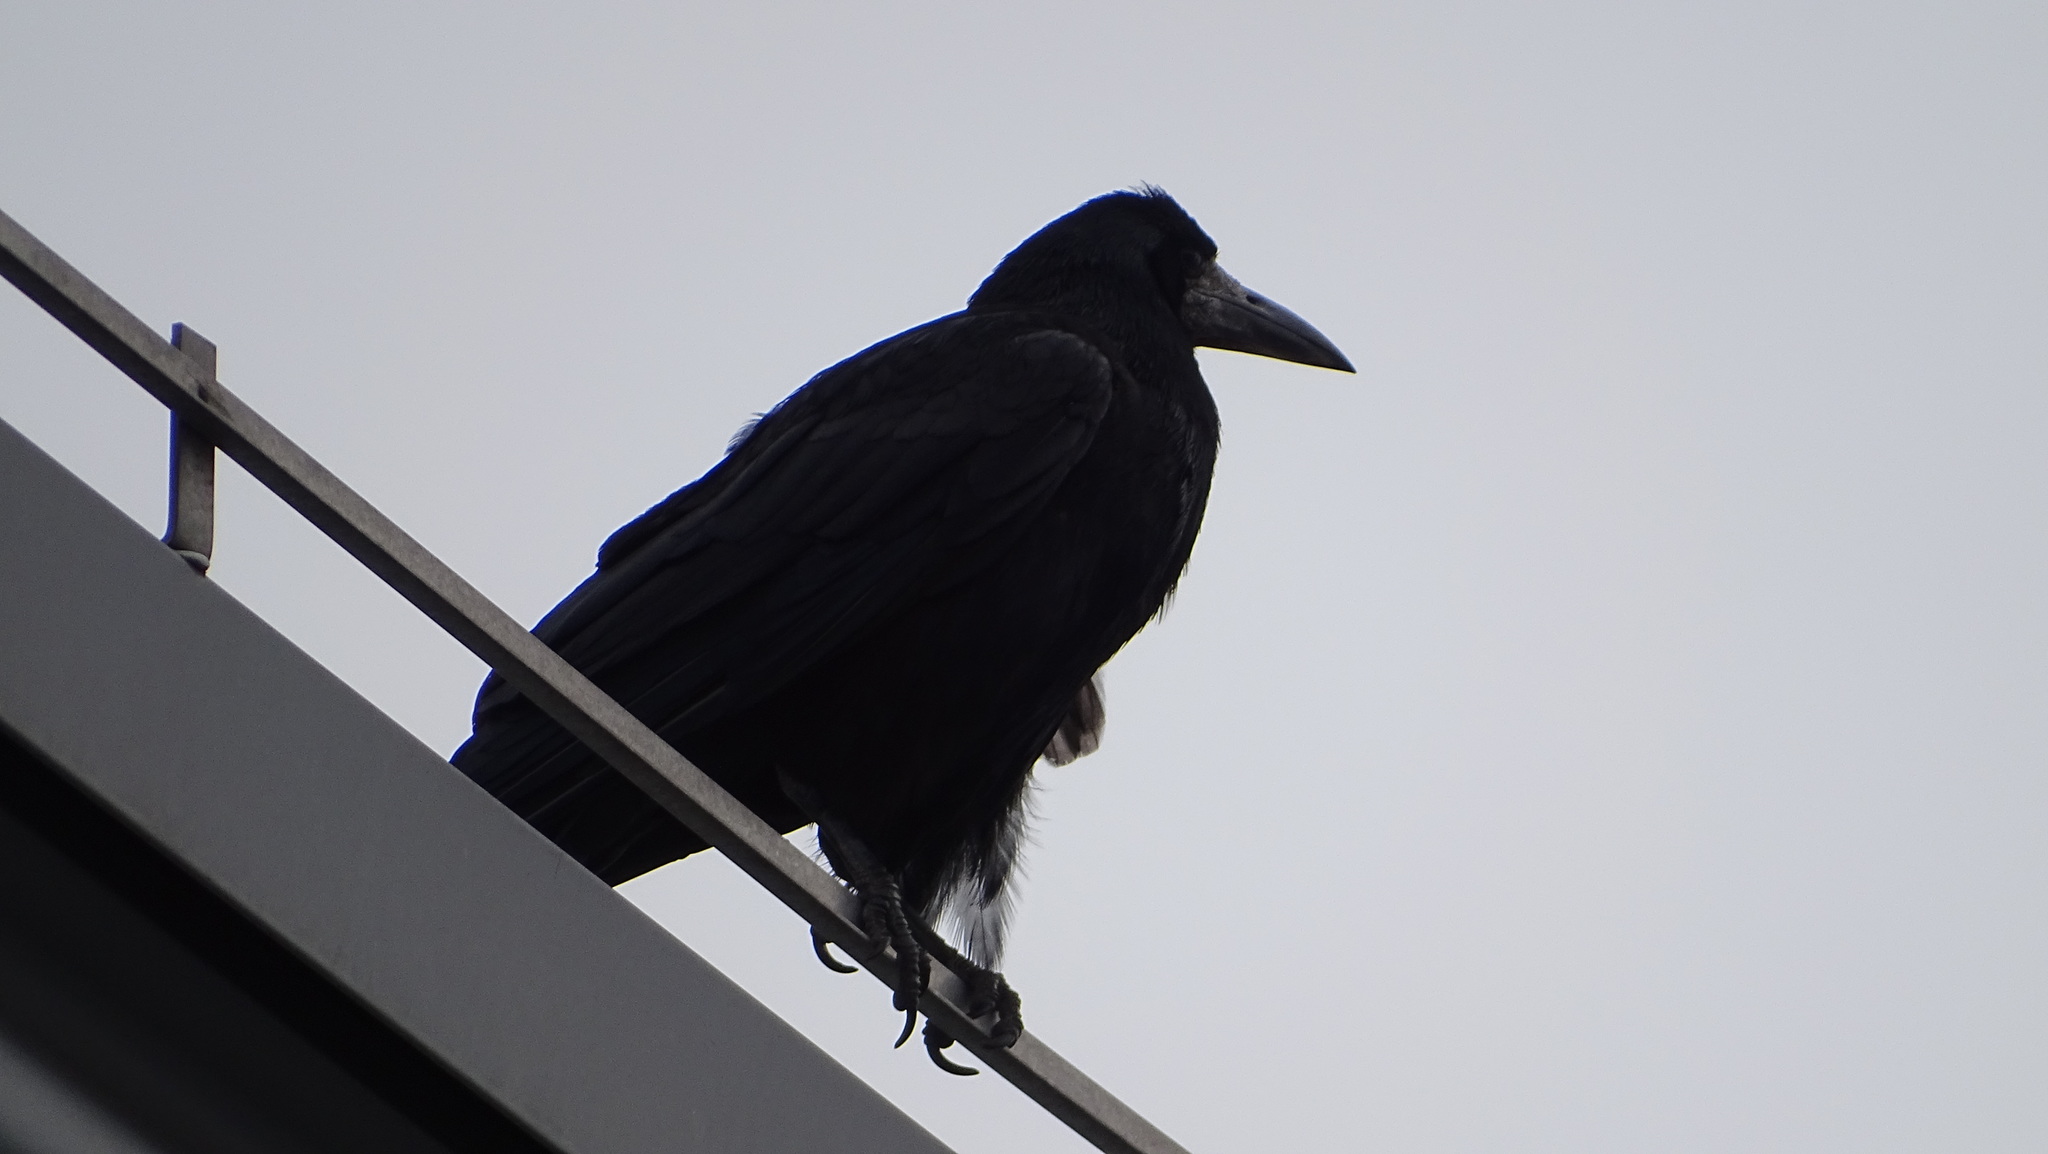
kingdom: Animalia
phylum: Chordata
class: Aves
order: Passeriformes
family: Corvidae
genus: Corvus
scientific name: Corvus frugilegus
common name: Rook
